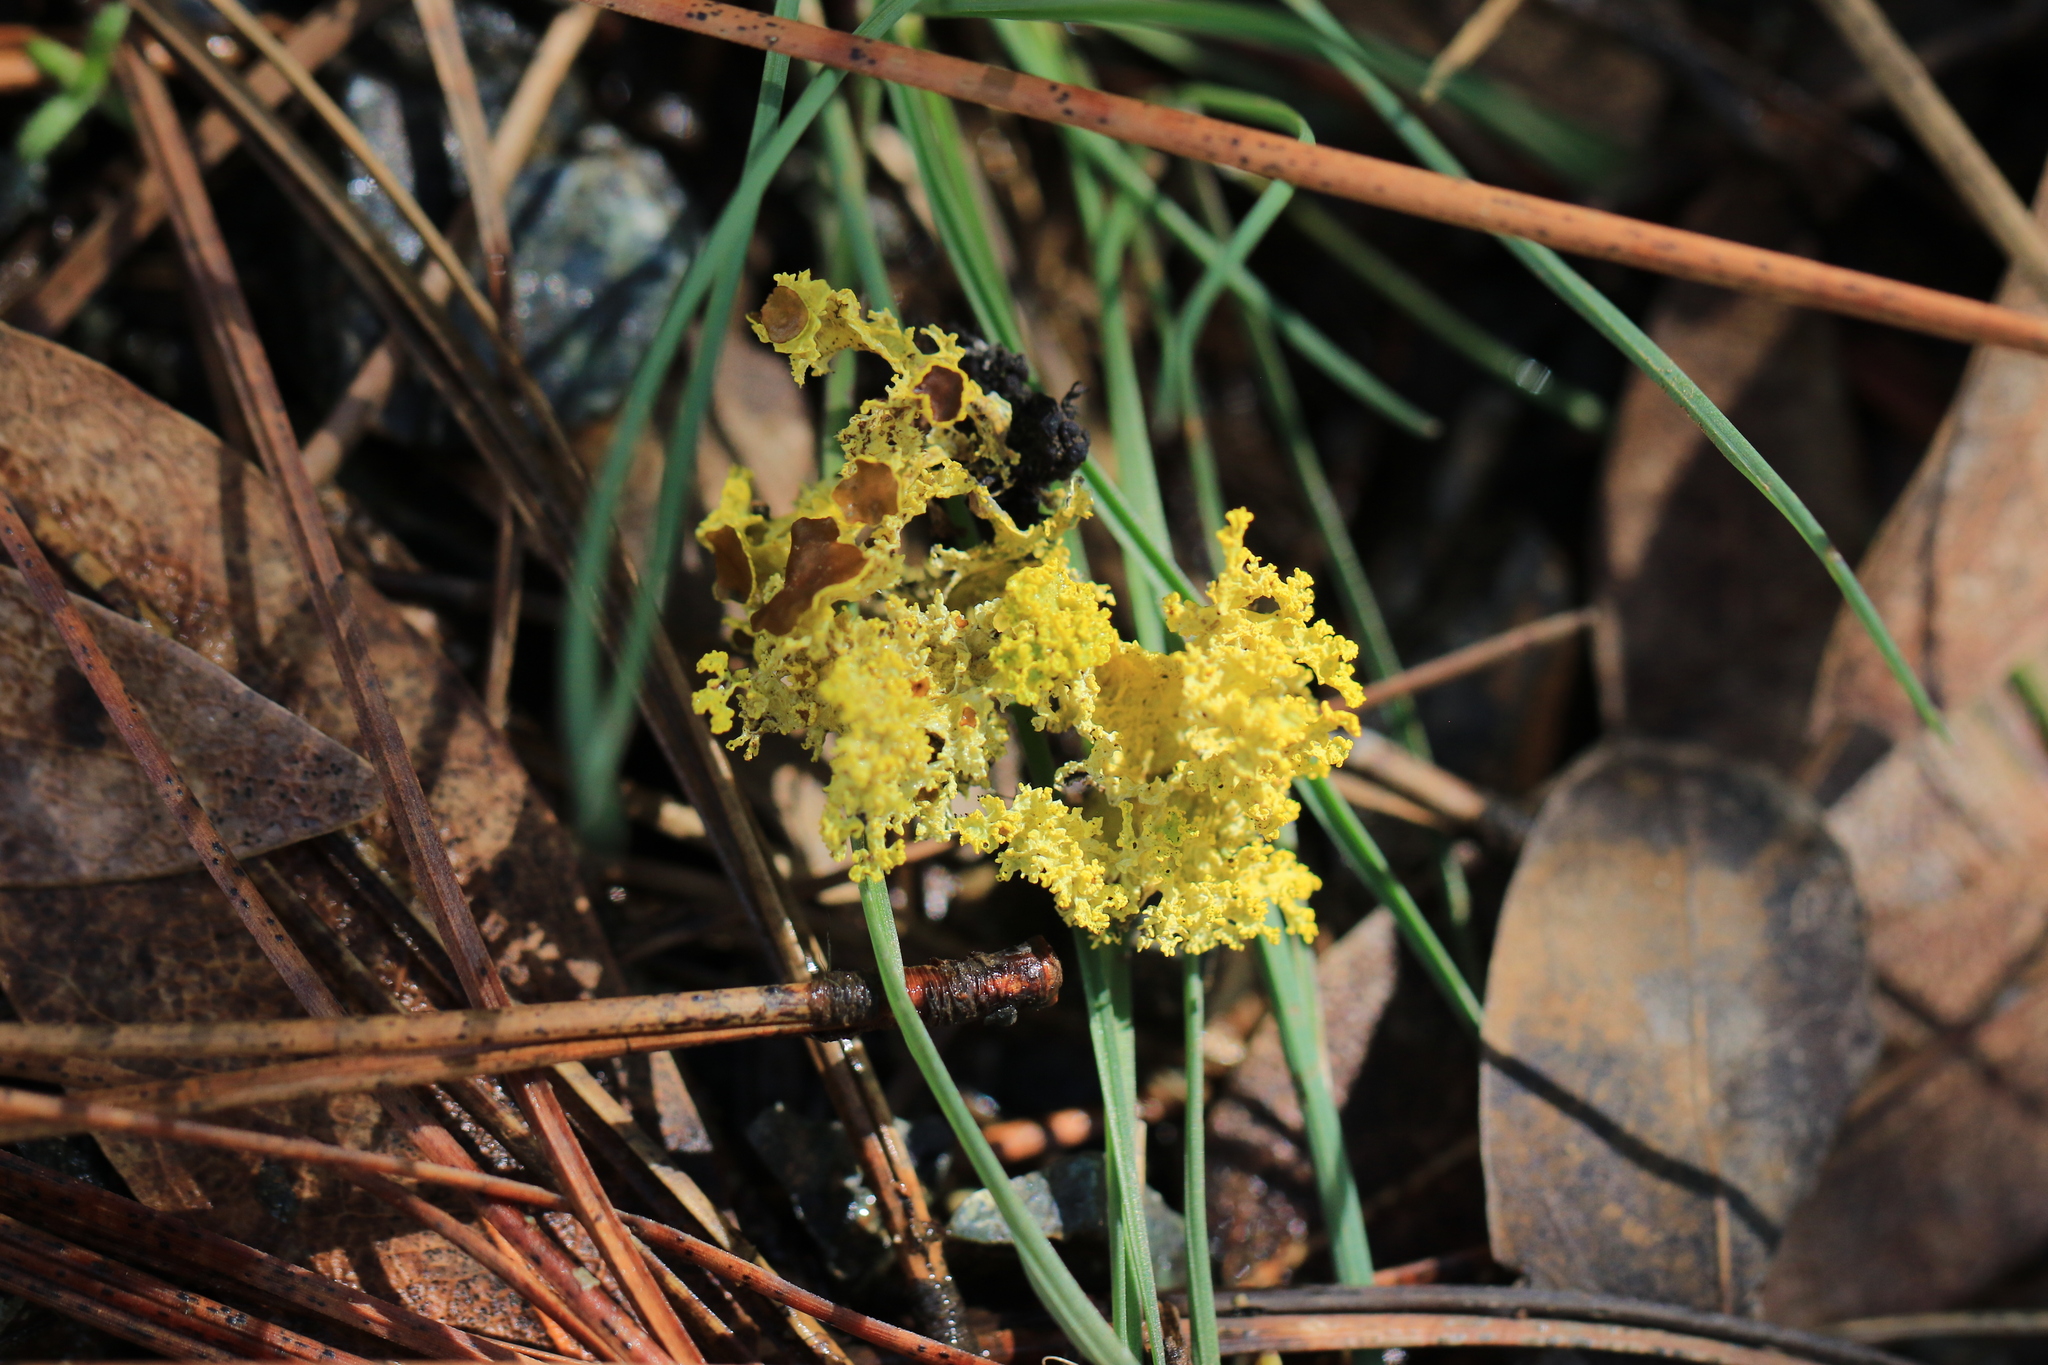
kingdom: Fungi
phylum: Ascomycota
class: Lecanoromycetes
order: Lecanorales
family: Parmeliaceae
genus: Vulpicida
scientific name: Vulpicida canadensis
